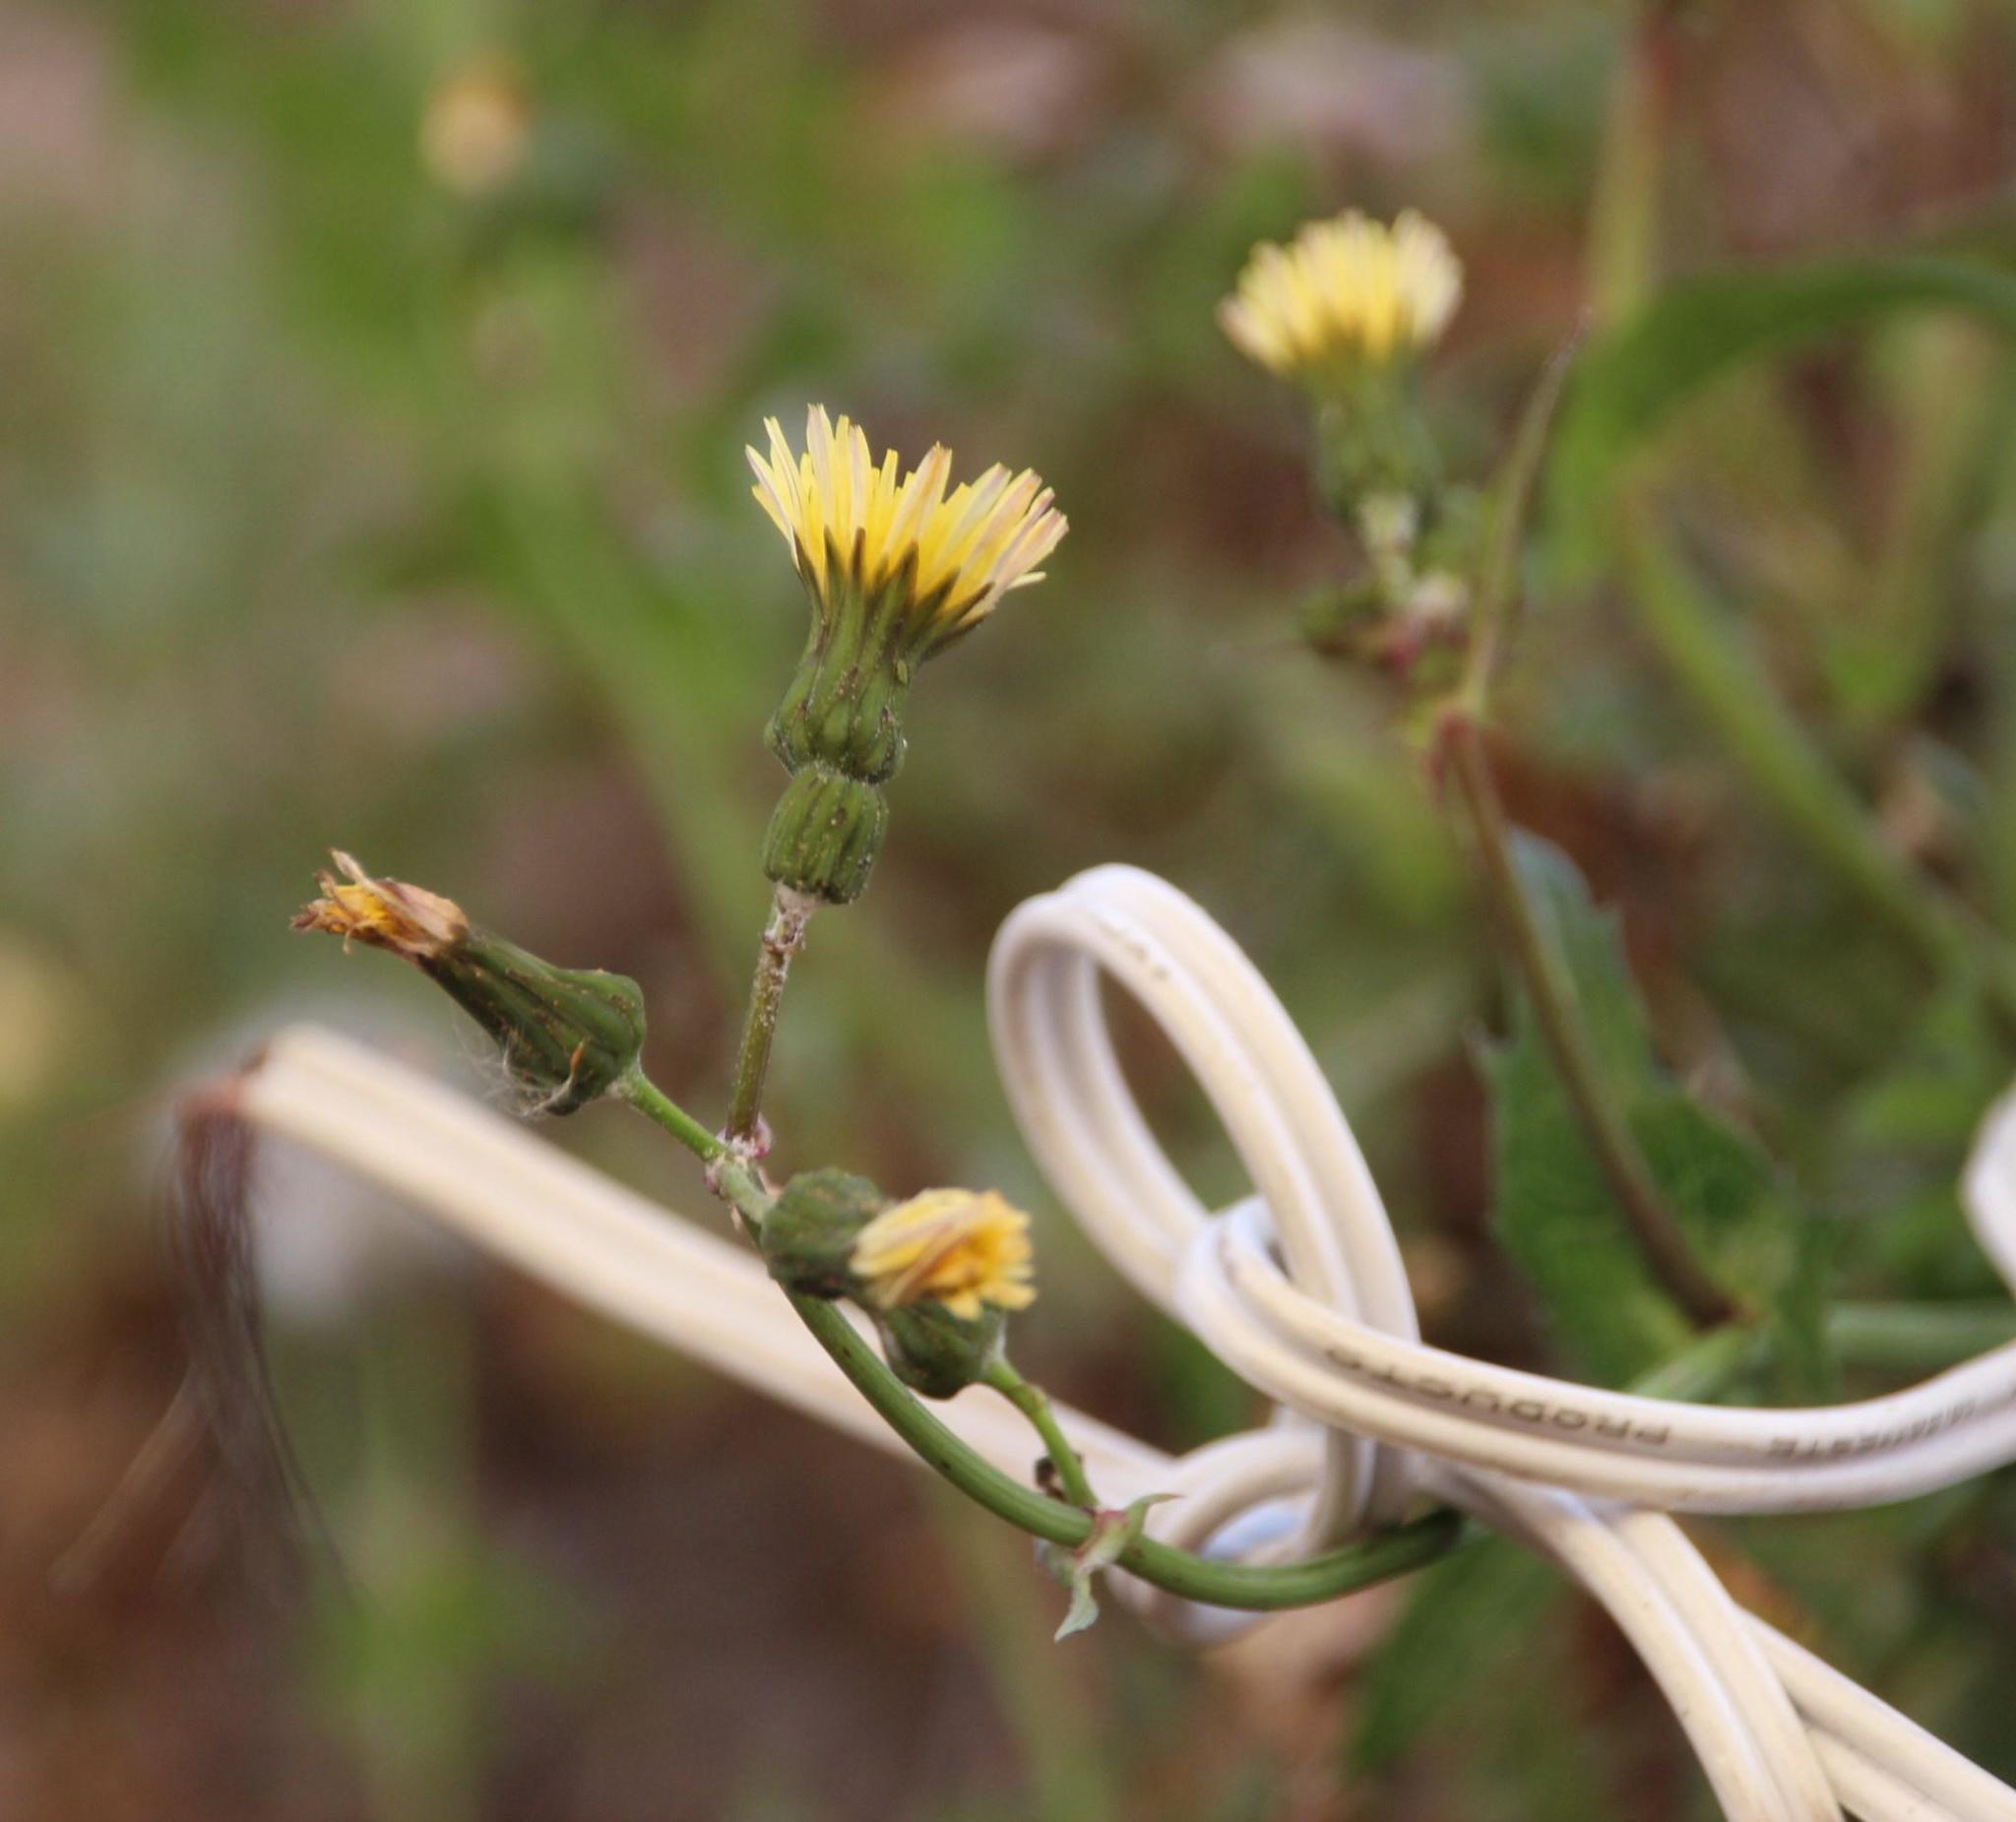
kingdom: Plantae
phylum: Tracheophyta
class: Magnoliopsida
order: Asterales
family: Asteraceae
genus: Sonchus
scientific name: Sonchus asper
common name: Prickly sow-thistle
